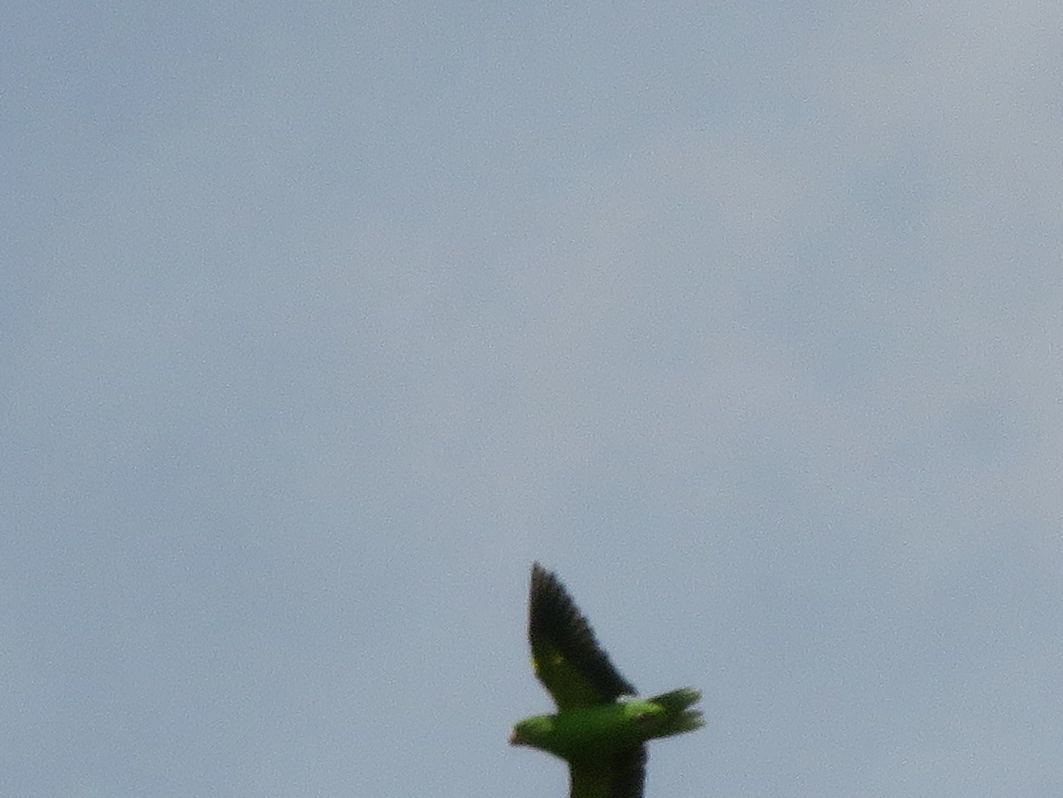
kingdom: Animalia
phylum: Chordata
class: Aves
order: Psittaciformes
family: Psittacidae
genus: Brotogeris
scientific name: Brotogeris chiriri
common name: Yellow-chevroned parakeet
